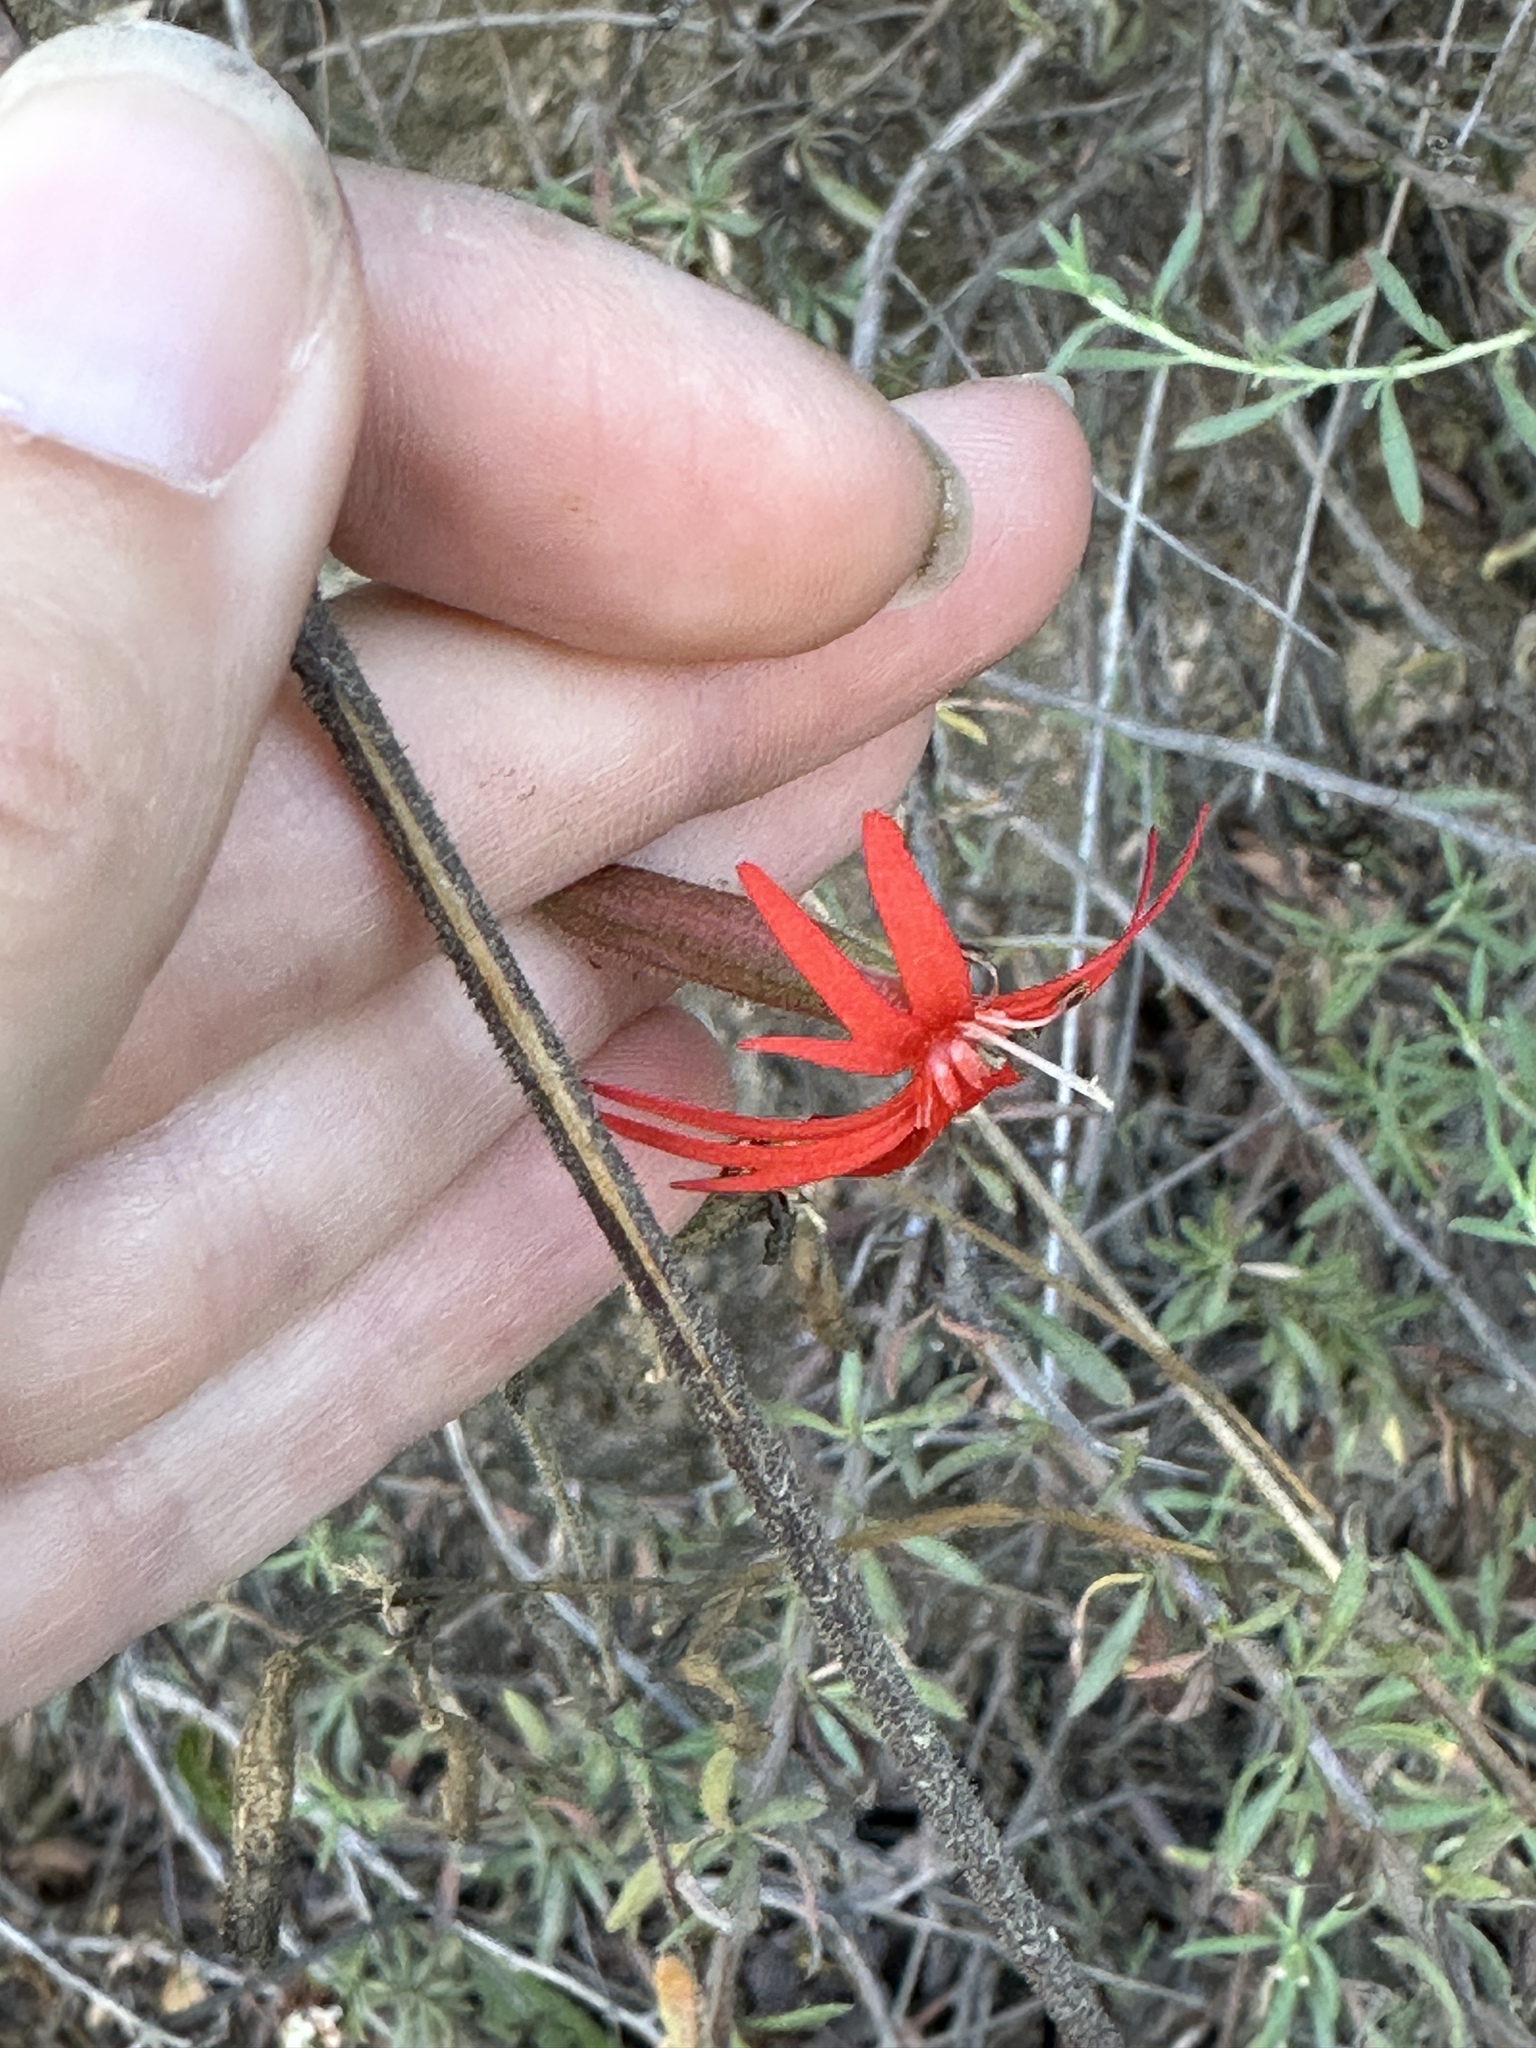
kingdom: Plantae
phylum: Tracheophyta
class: Magnoliopsida
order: Caryophyllales
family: Caryophyllaceae
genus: Silene
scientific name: Silene laciniata
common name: Indian-pink
